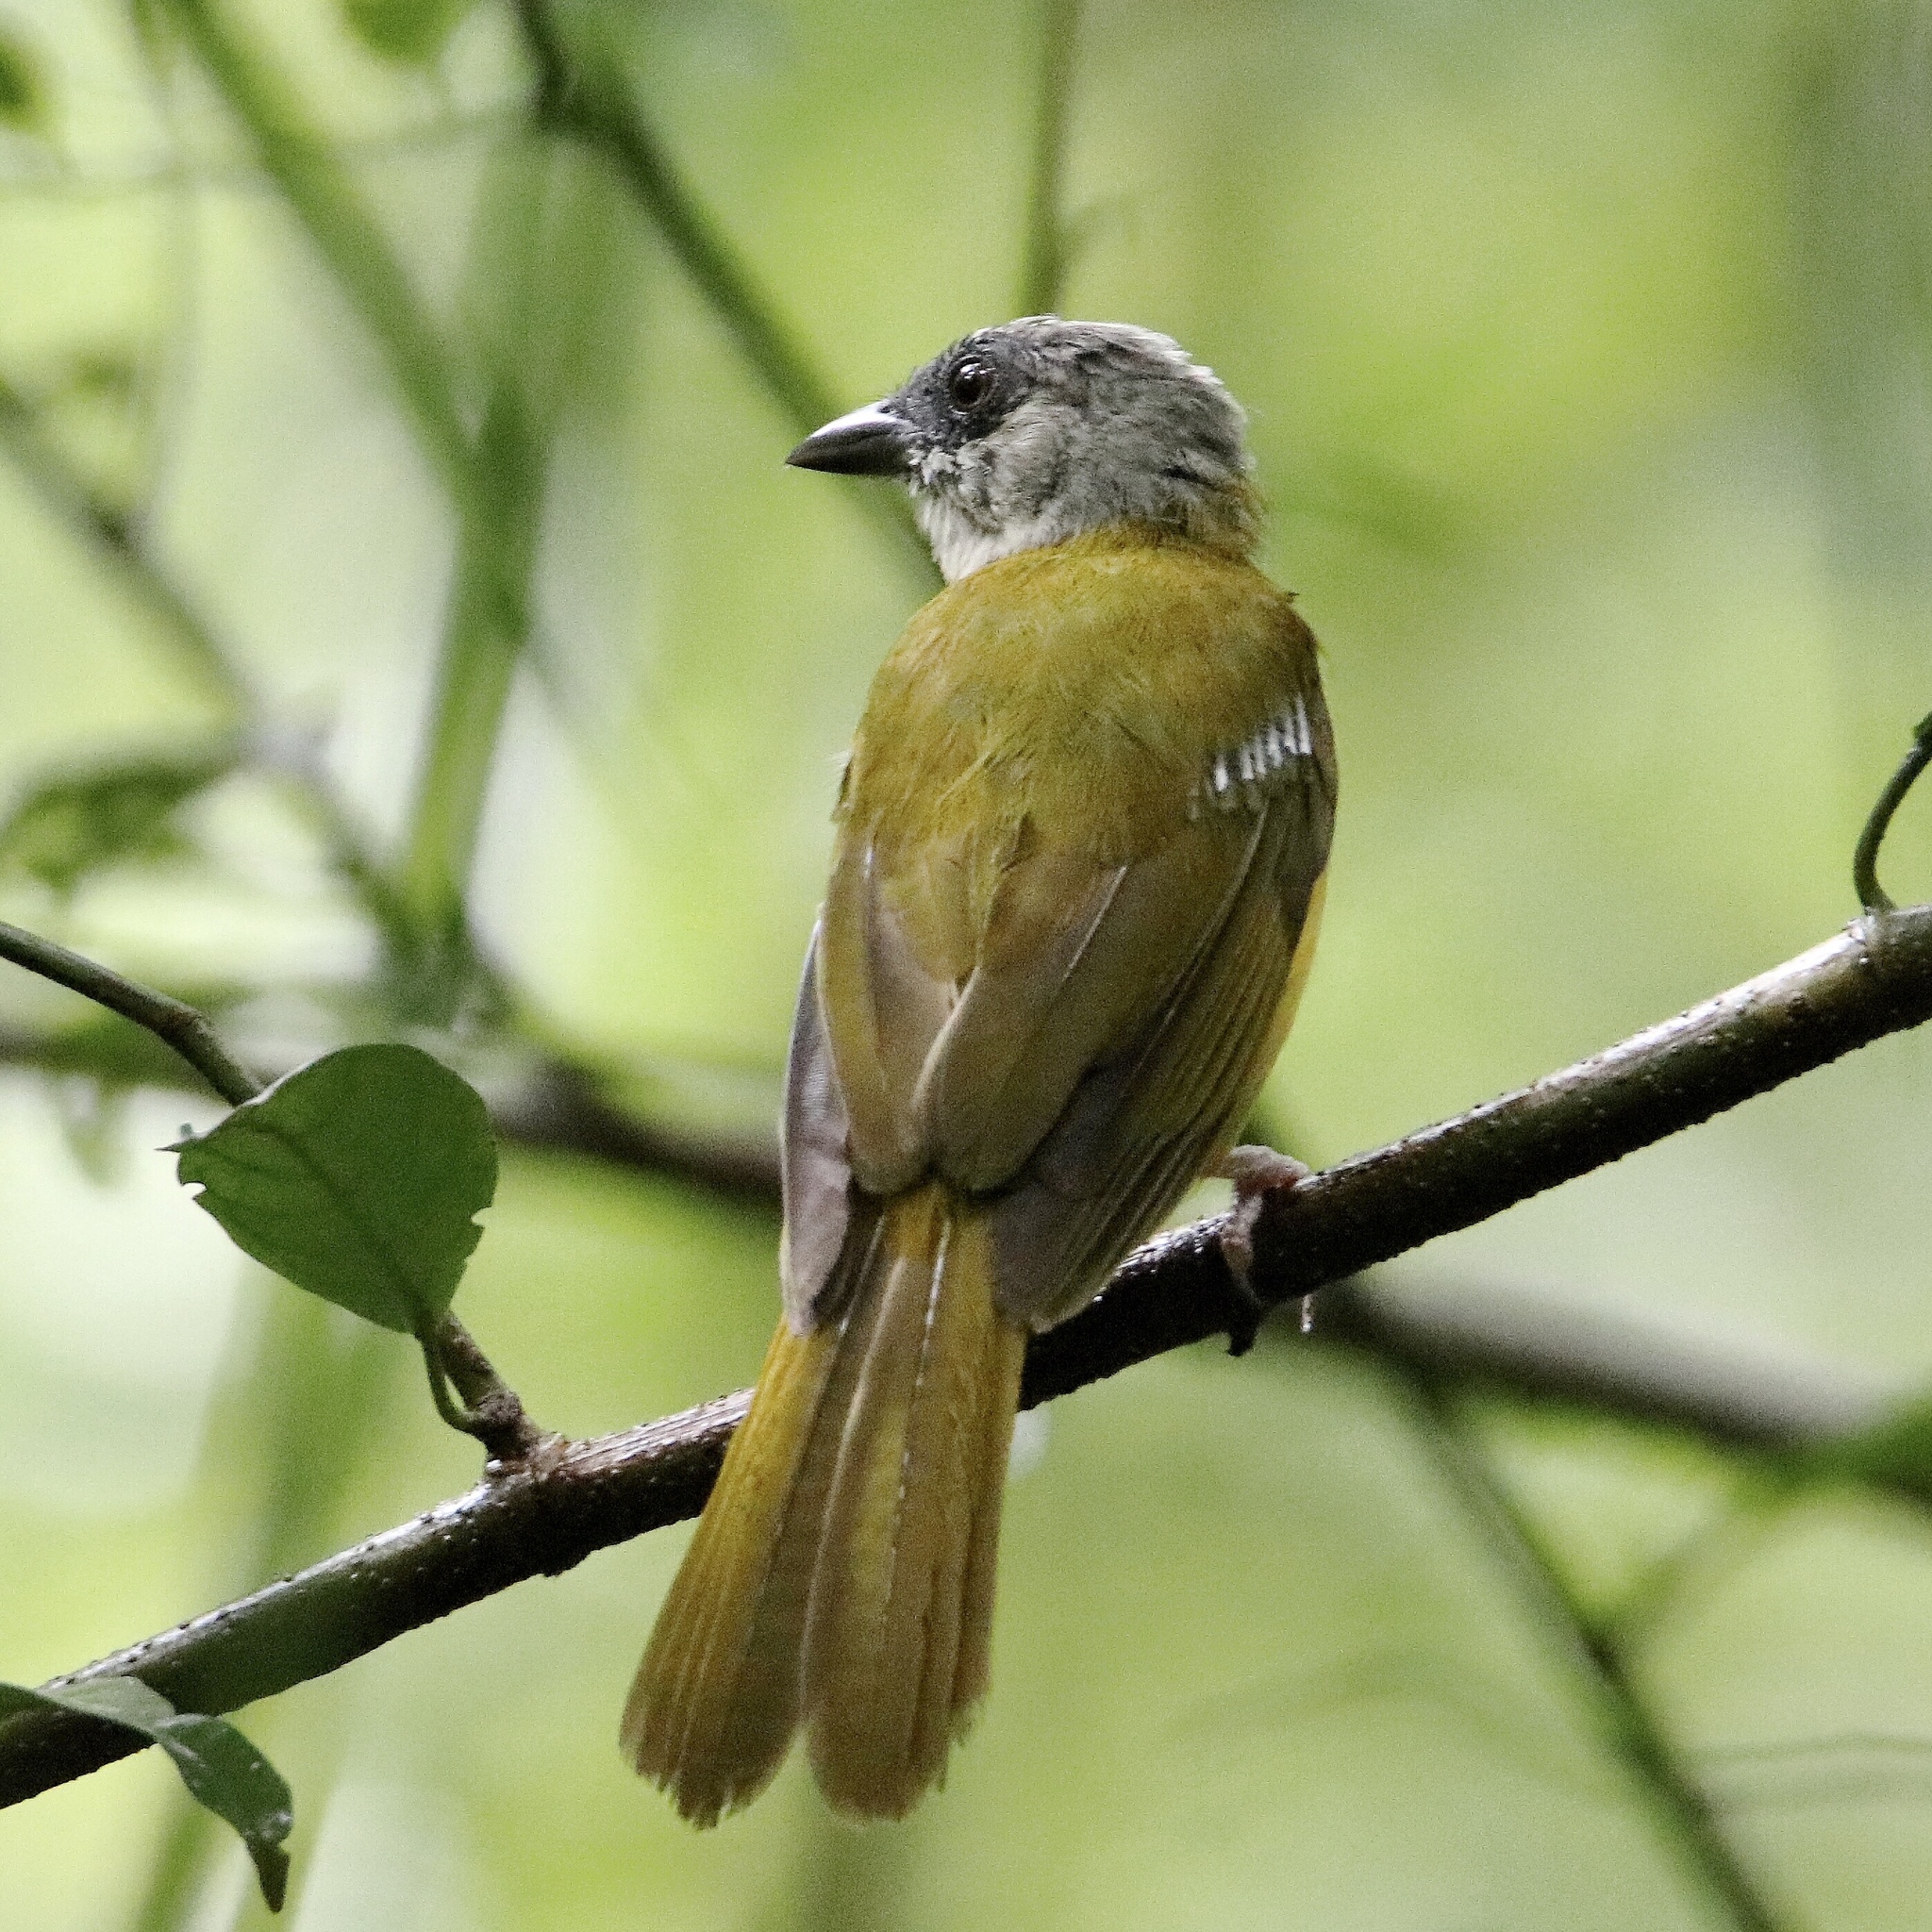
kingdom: Animalia
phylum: Chordata
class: Aves
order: Passeriformes
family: Thraupidae
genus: Eucometis
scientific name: Eucometis penicillata
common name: Grey-headed tanager
